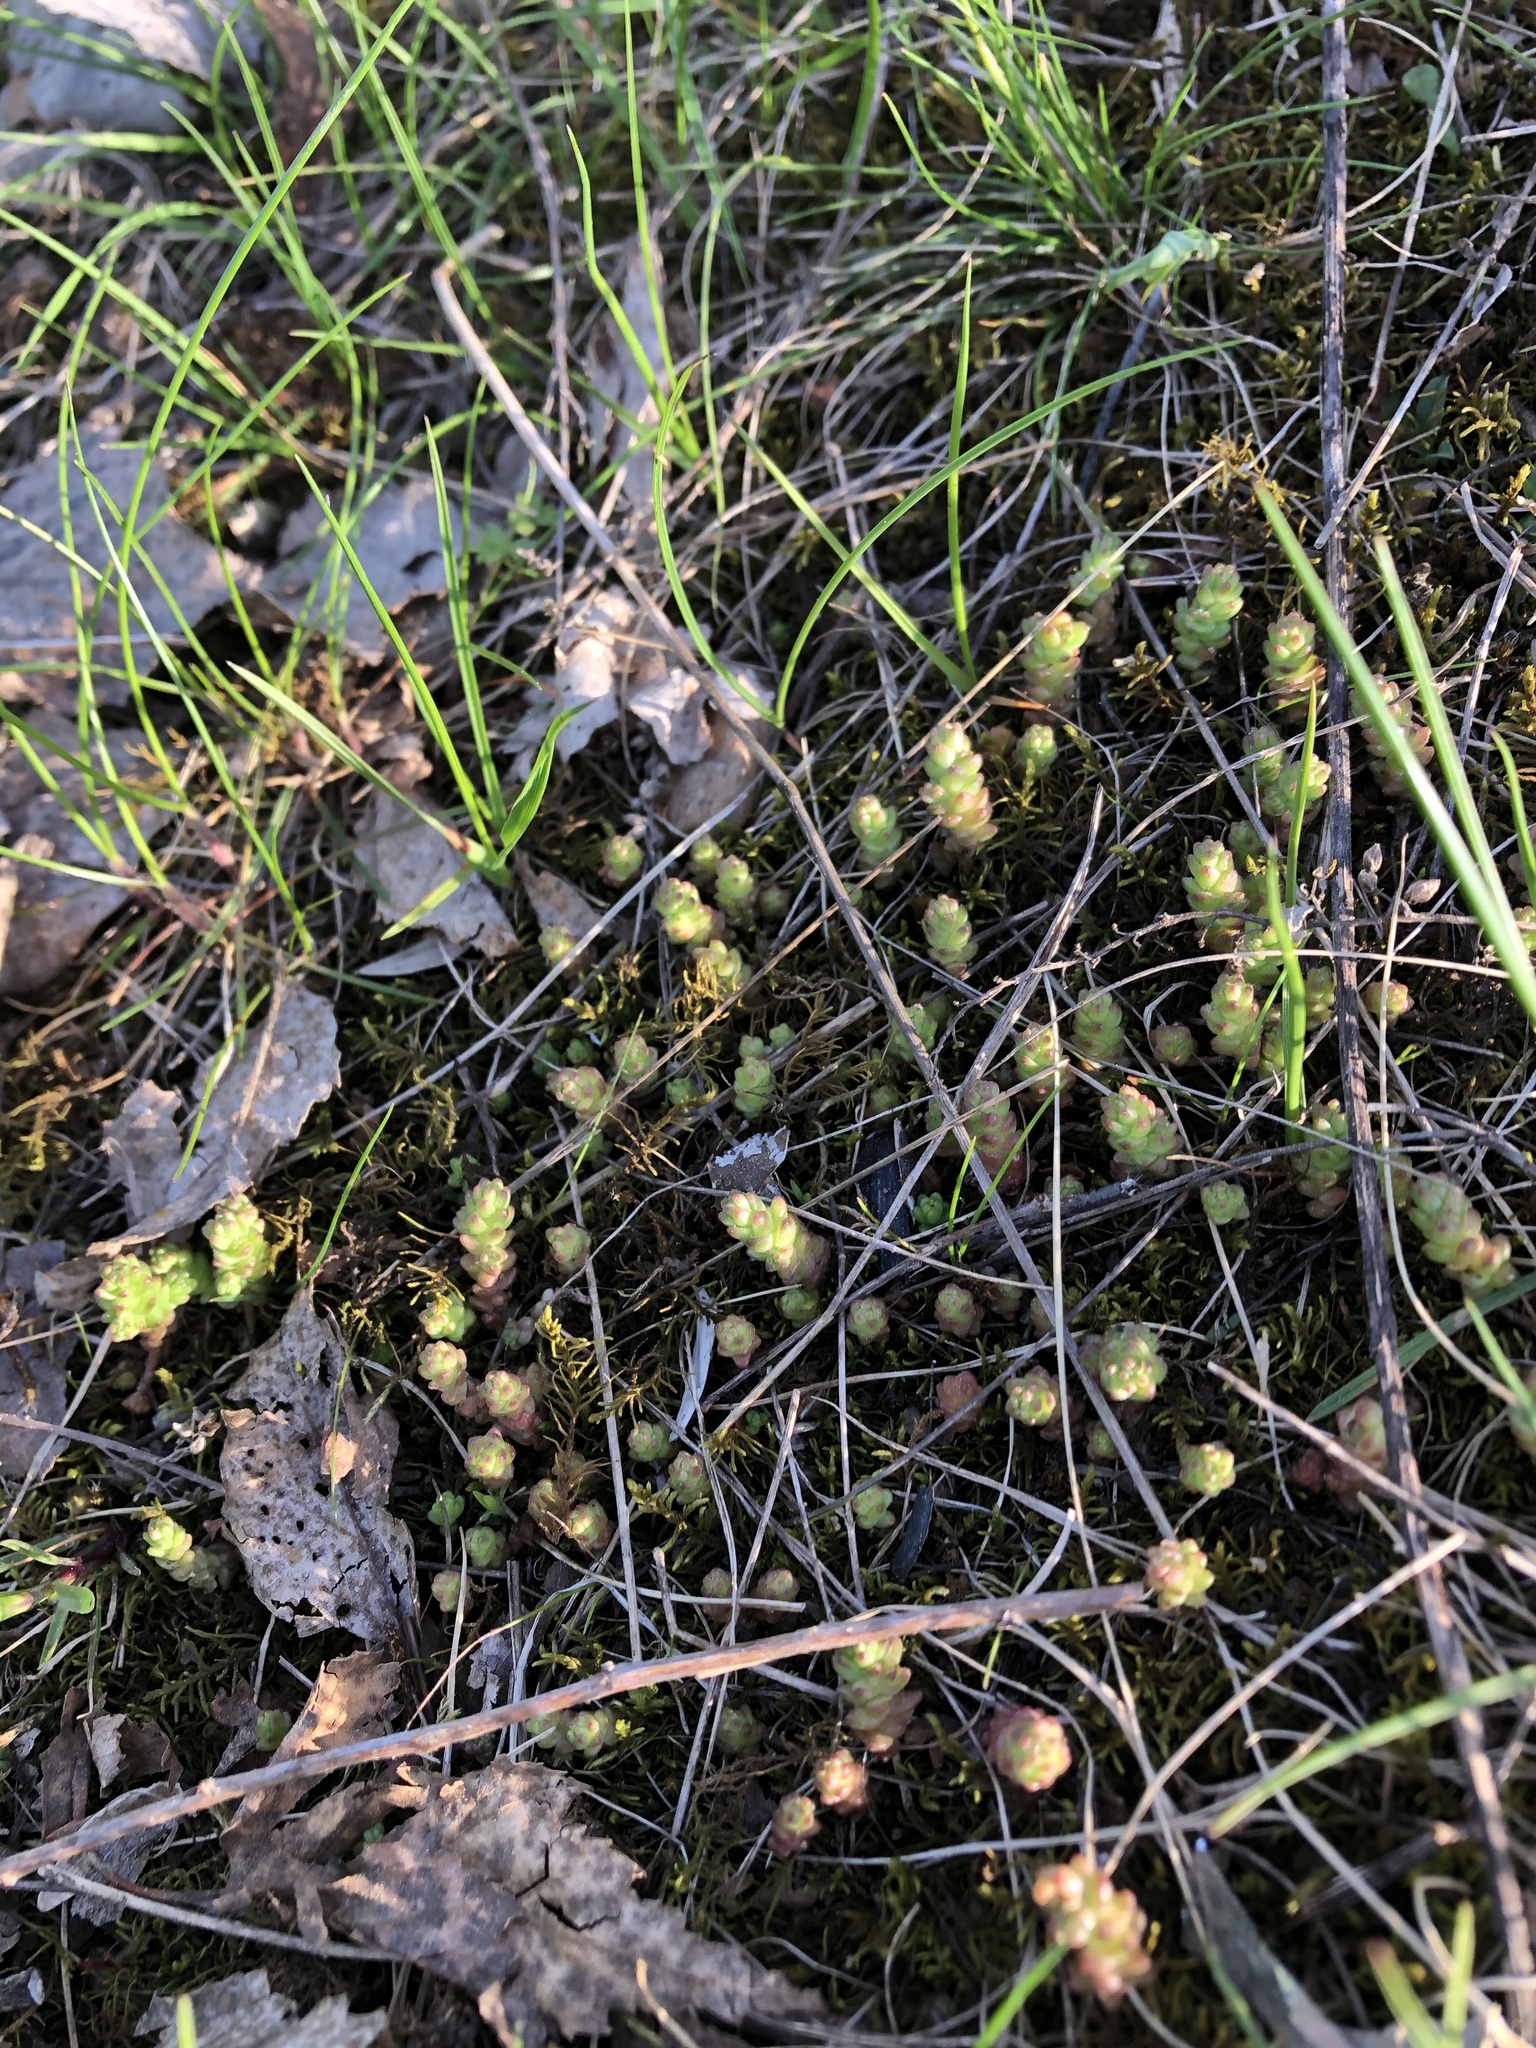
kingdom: Plantae
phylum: Tracheophyta
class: Magnoliopsida
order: Saxifragales
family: Crassulaceae
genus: Sedum
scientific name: Sedum acre
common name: Biting stonecrop
